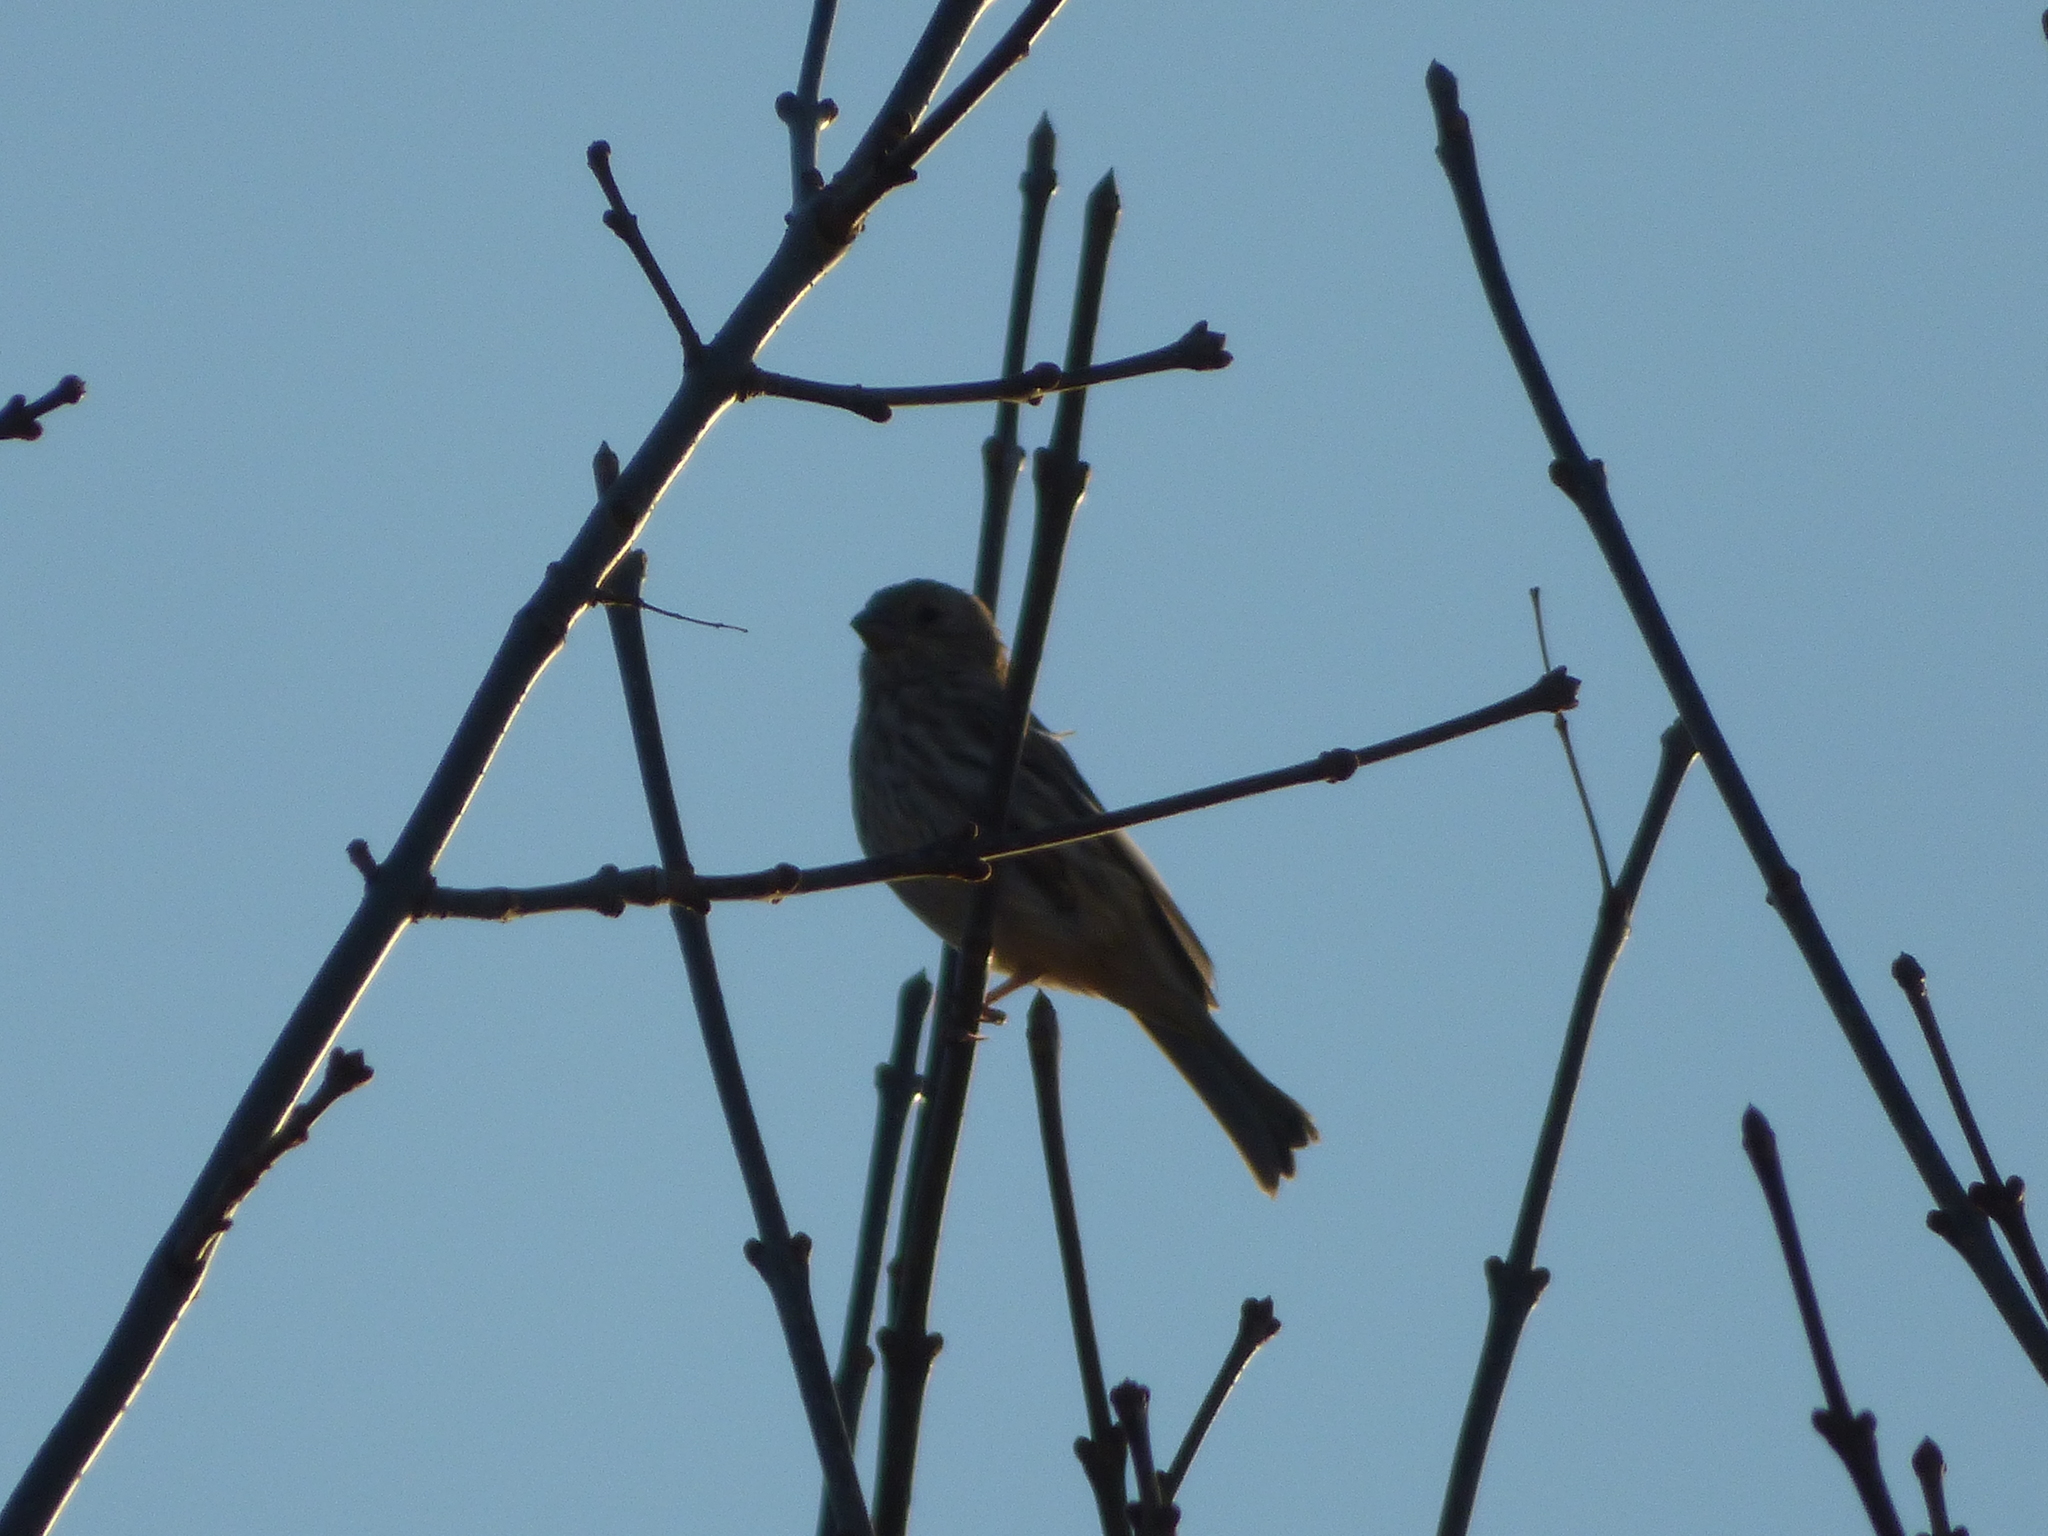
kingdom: Animalia
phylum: Chordata
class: Aves
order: Passeriformes
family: Fringillidae
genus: Haemorhous
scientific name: Haemorhous mexicanus
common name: House finch
